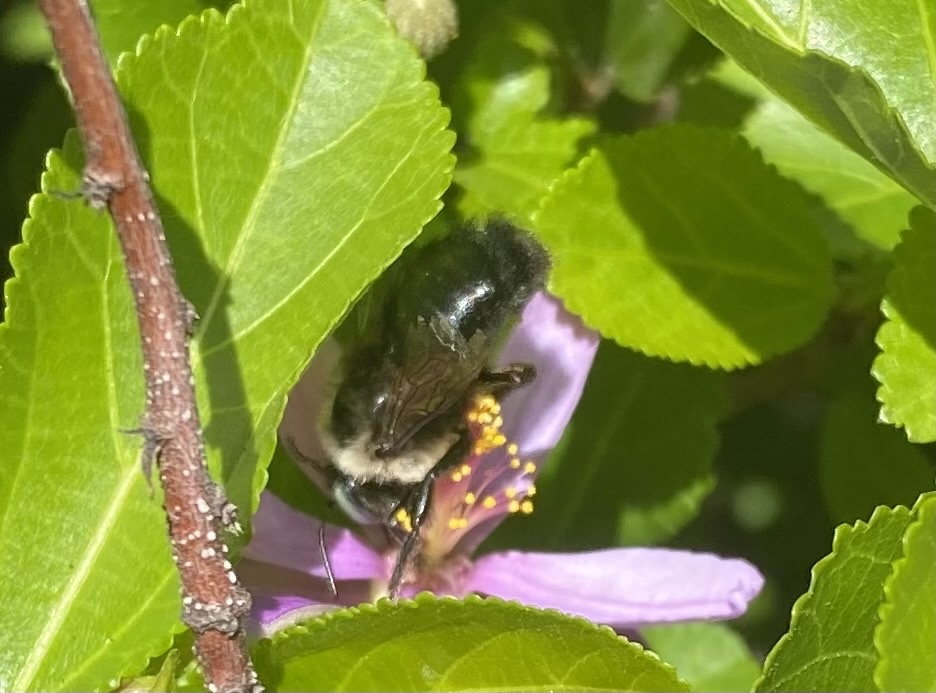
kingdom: Animalia
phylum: Arthropoda
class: Insecta
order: Hymenoptera
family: Apidae
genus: Xylocopa
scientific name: Xylocopa tabaniformis
